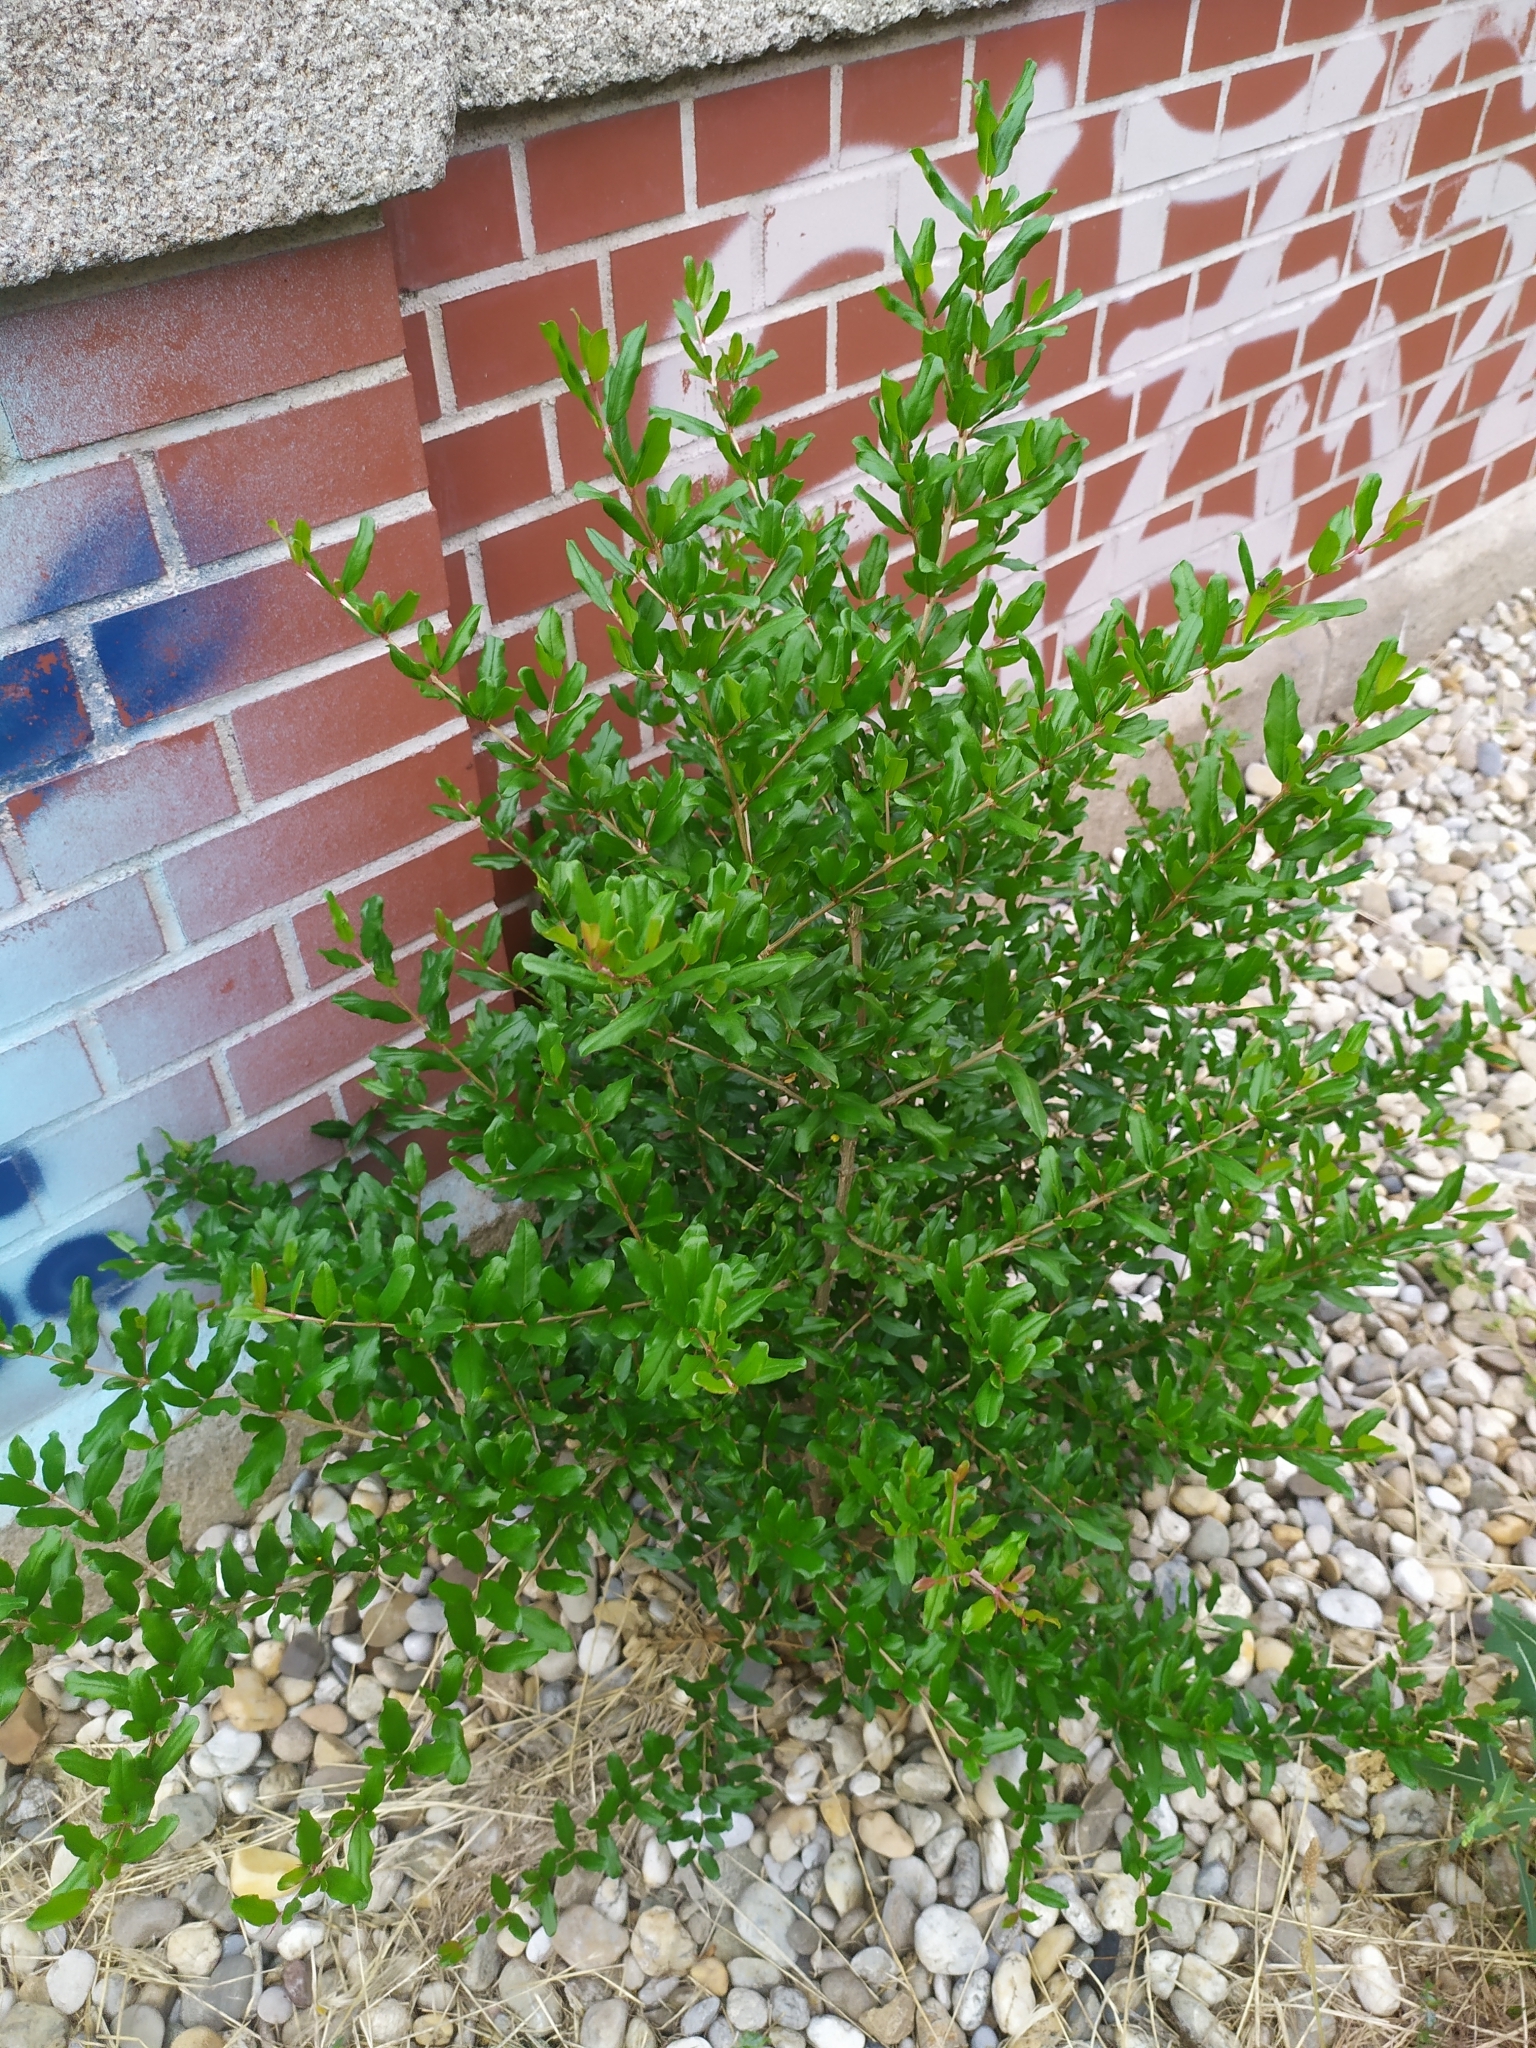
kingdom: Plantae
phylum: Tracheophyta
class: Magnoliopsida
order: Myrtales
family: Lythraceae
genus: Punica
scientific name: Punica granatum
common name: Pomegranate
